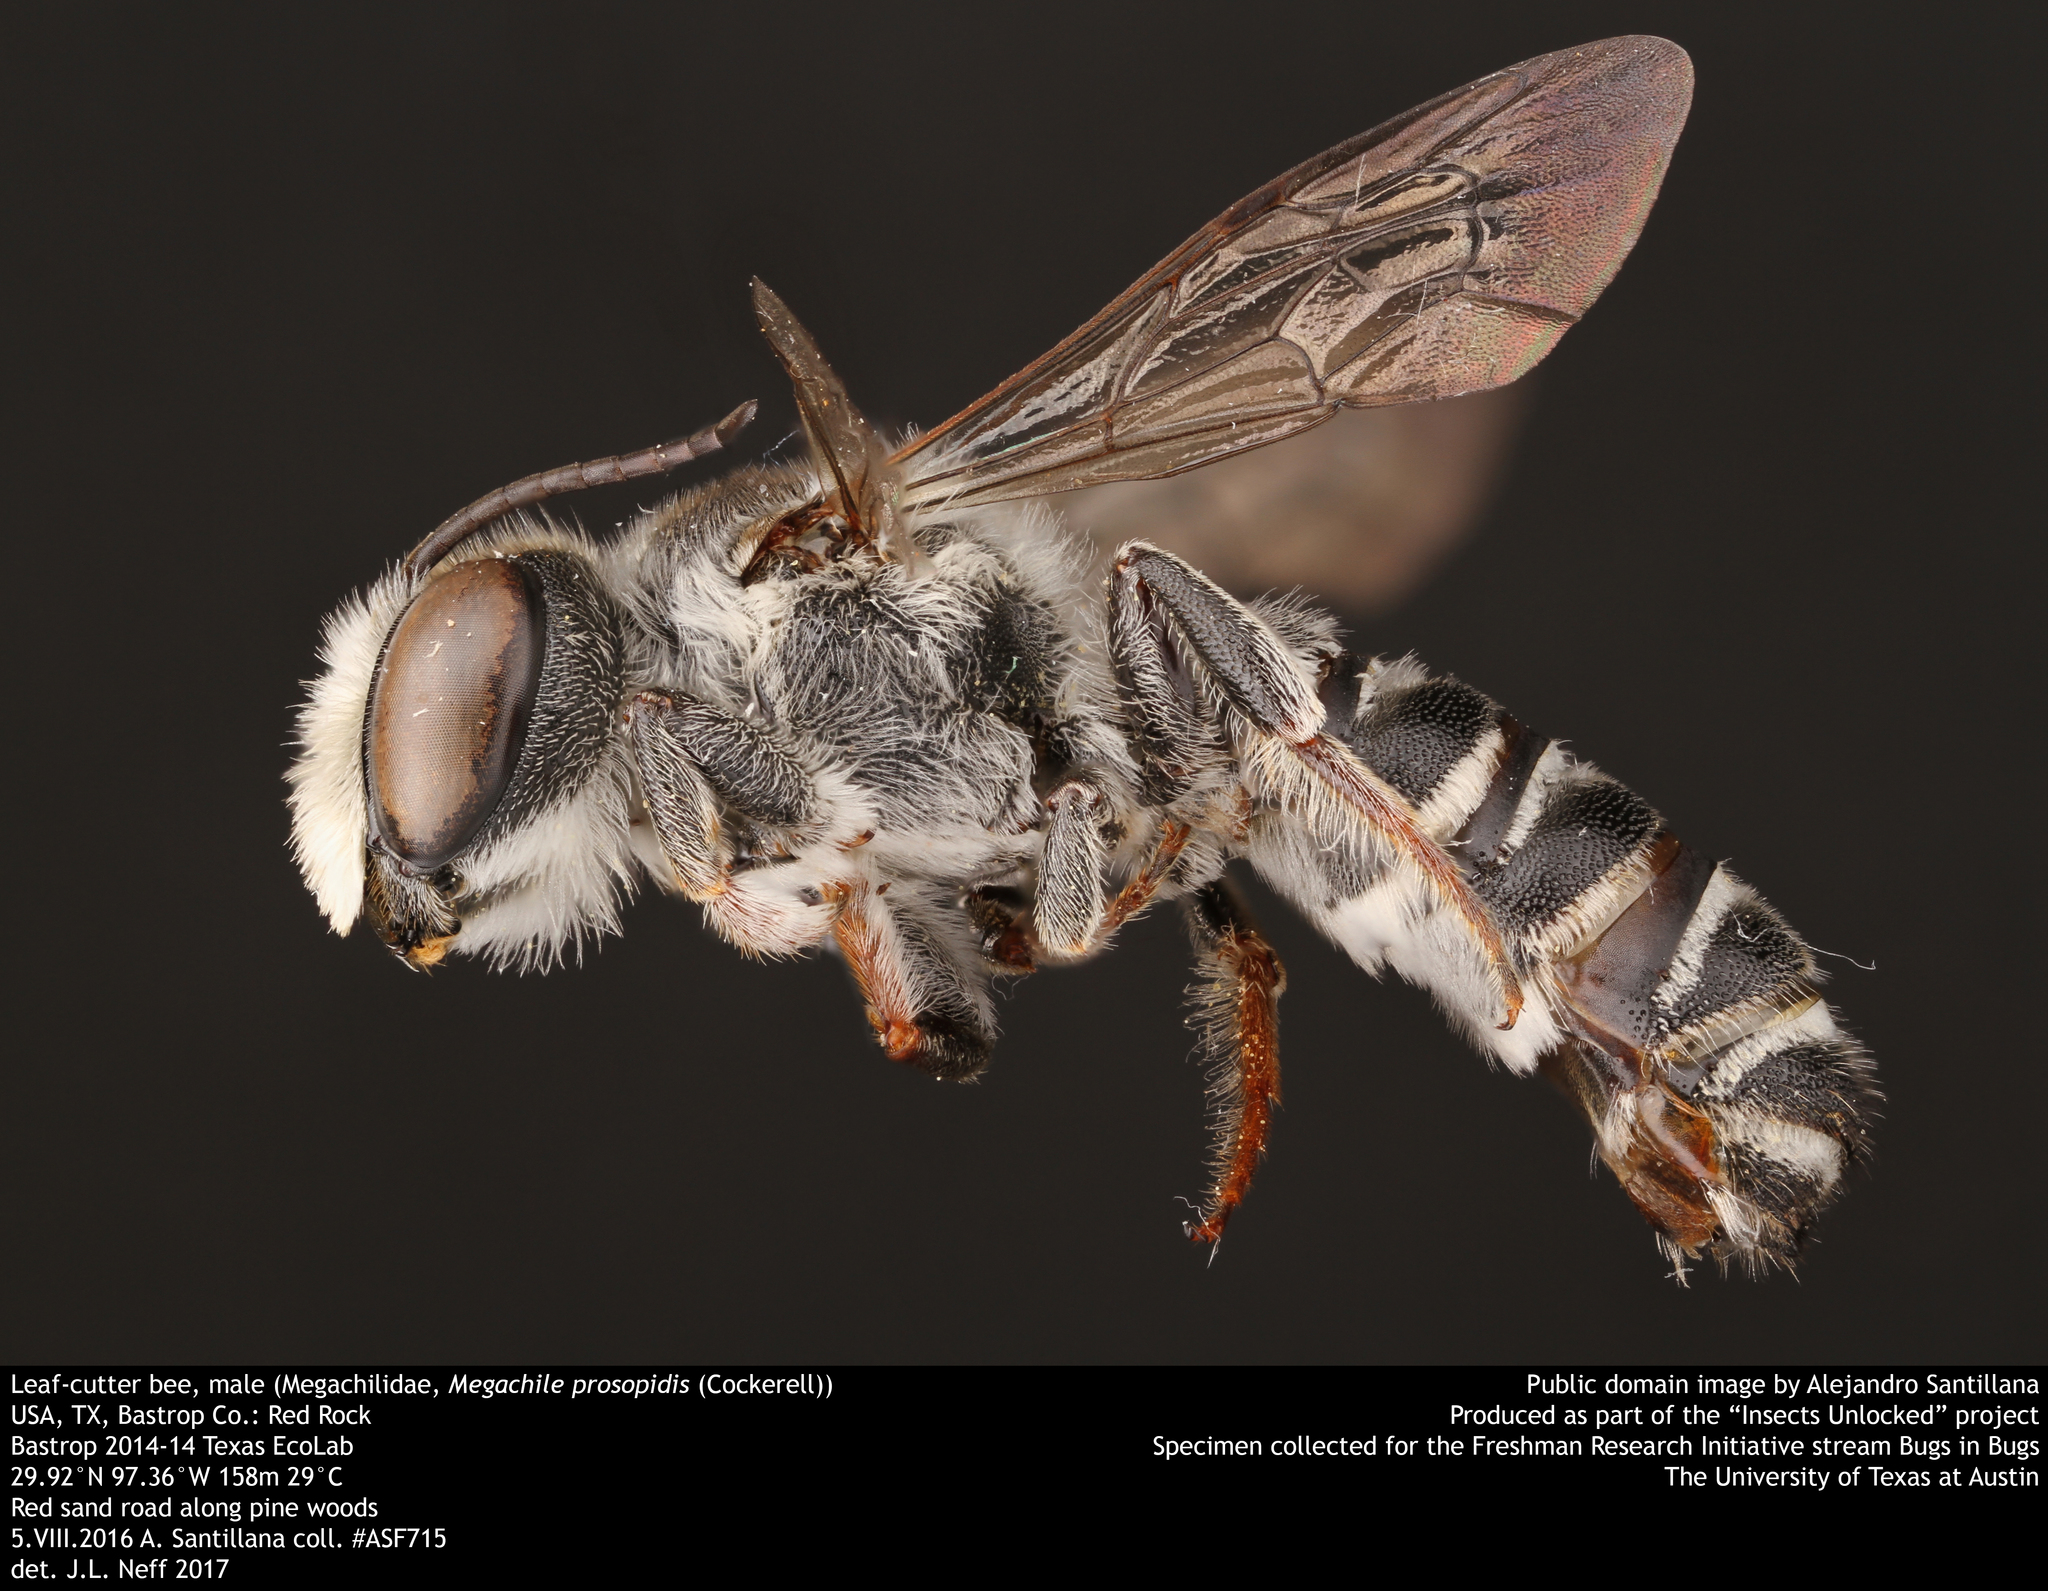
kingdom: Animalia
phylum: Arthropoda
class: Insecta
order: Hymenoptera
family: Megachilidae
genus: Megachile
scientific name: Megachile prosopidis
